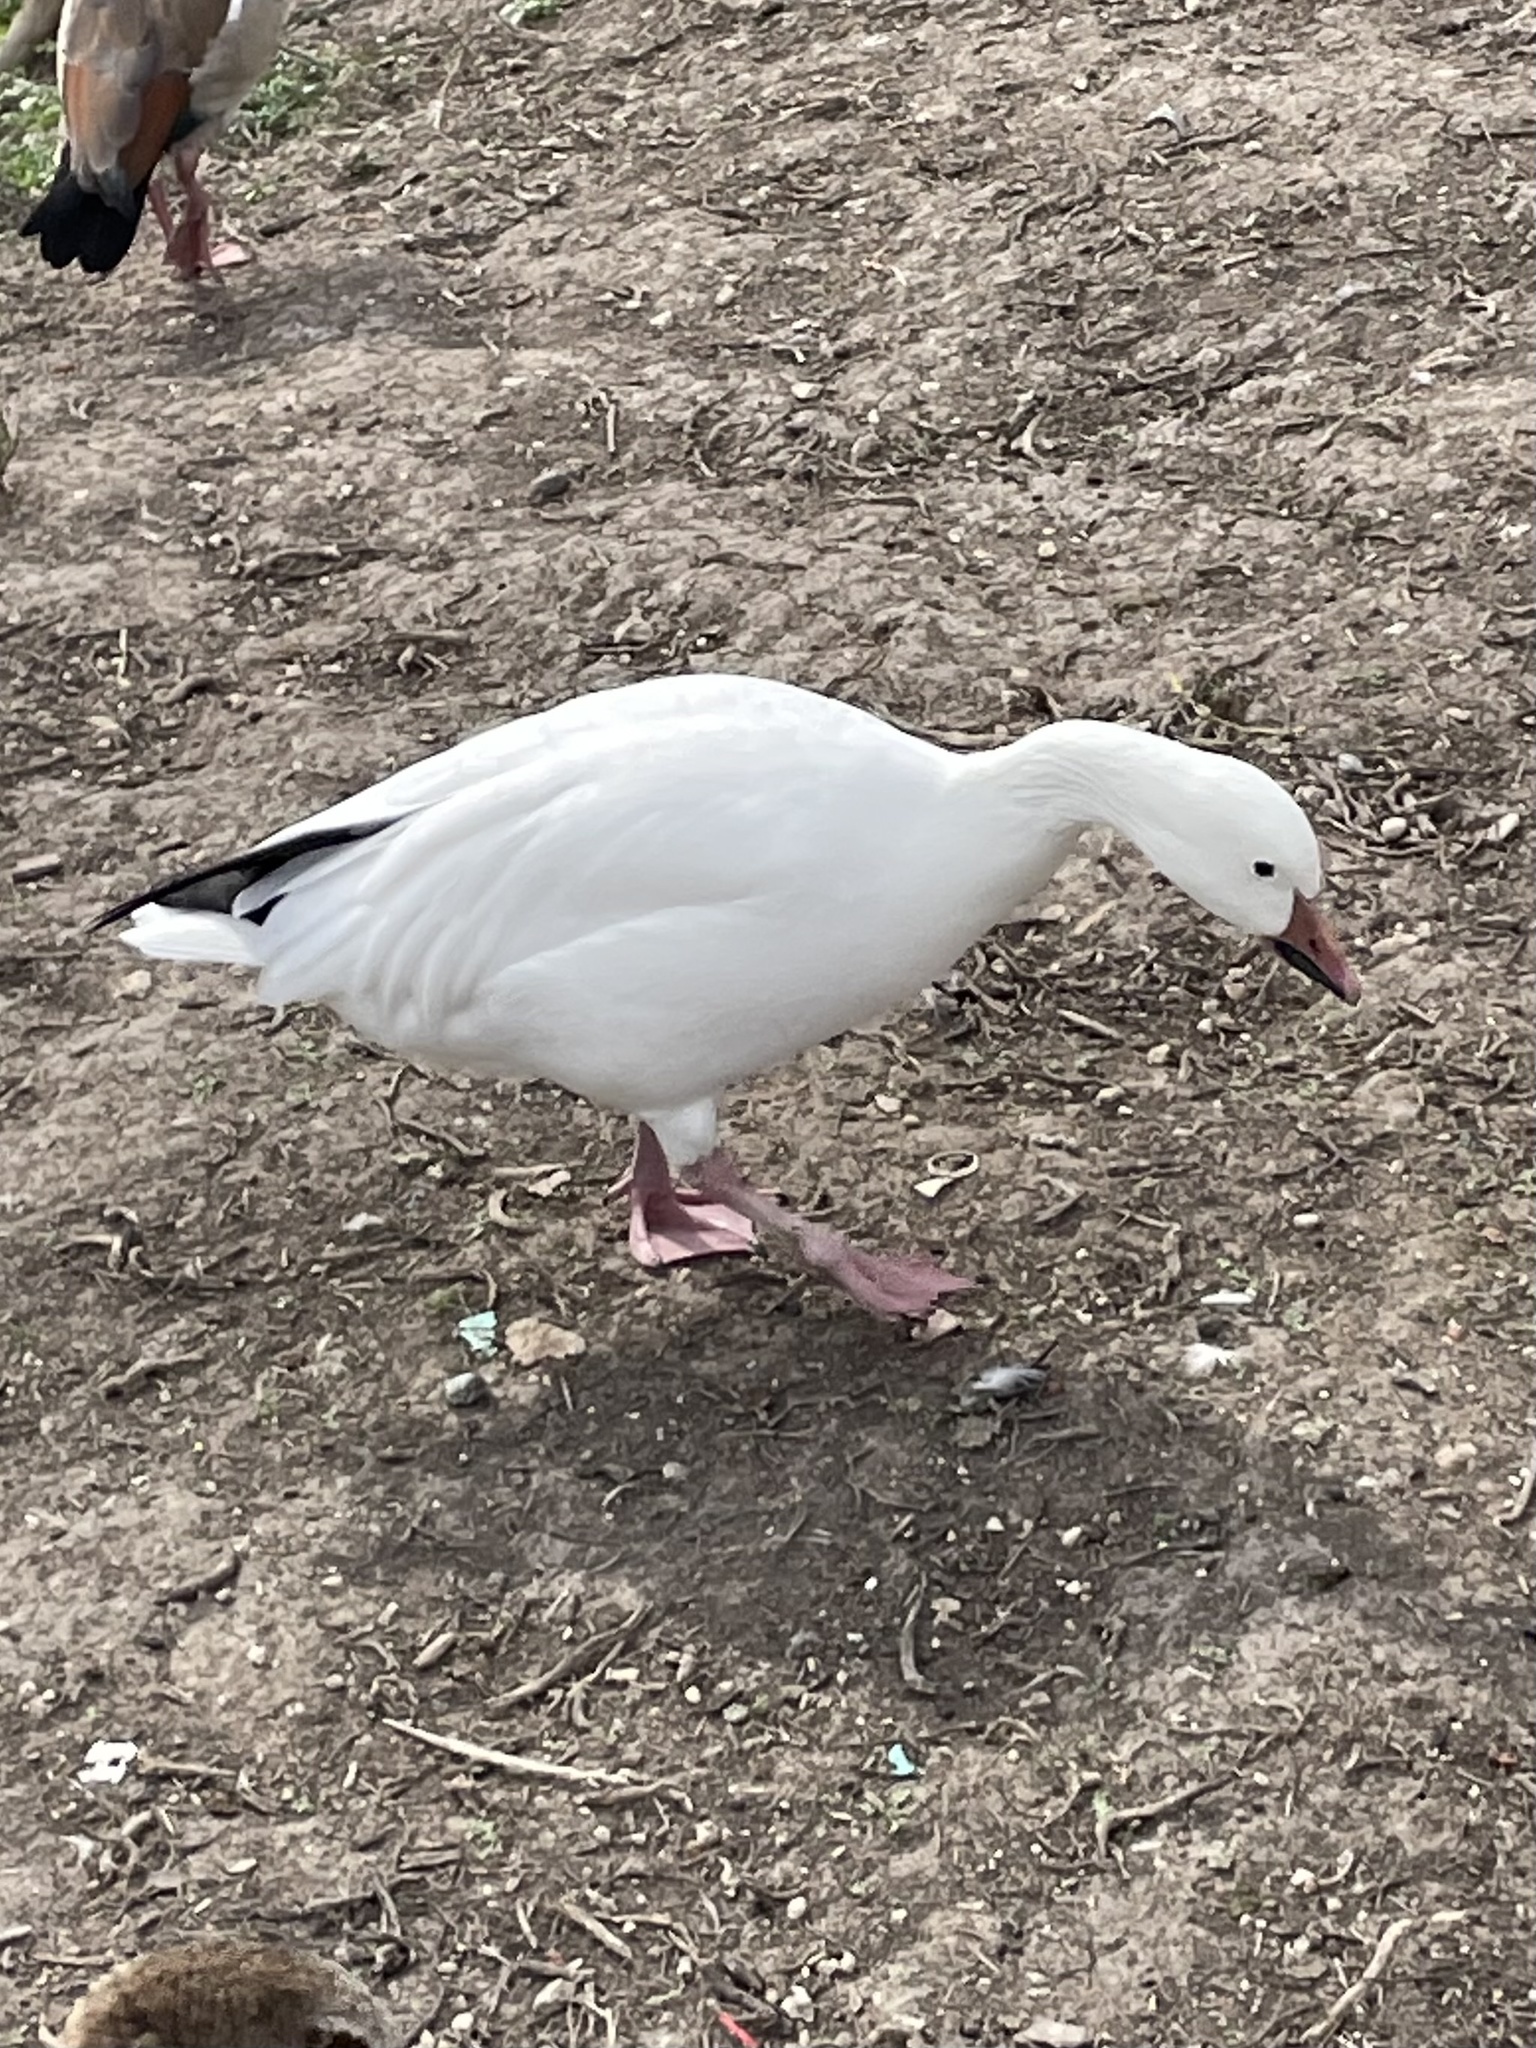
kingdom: Animalia
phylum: Chordata
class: Aves
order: Anseriformes
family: Anatidae
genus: Anser
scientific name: Anser caerulescens
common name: Snow goose
